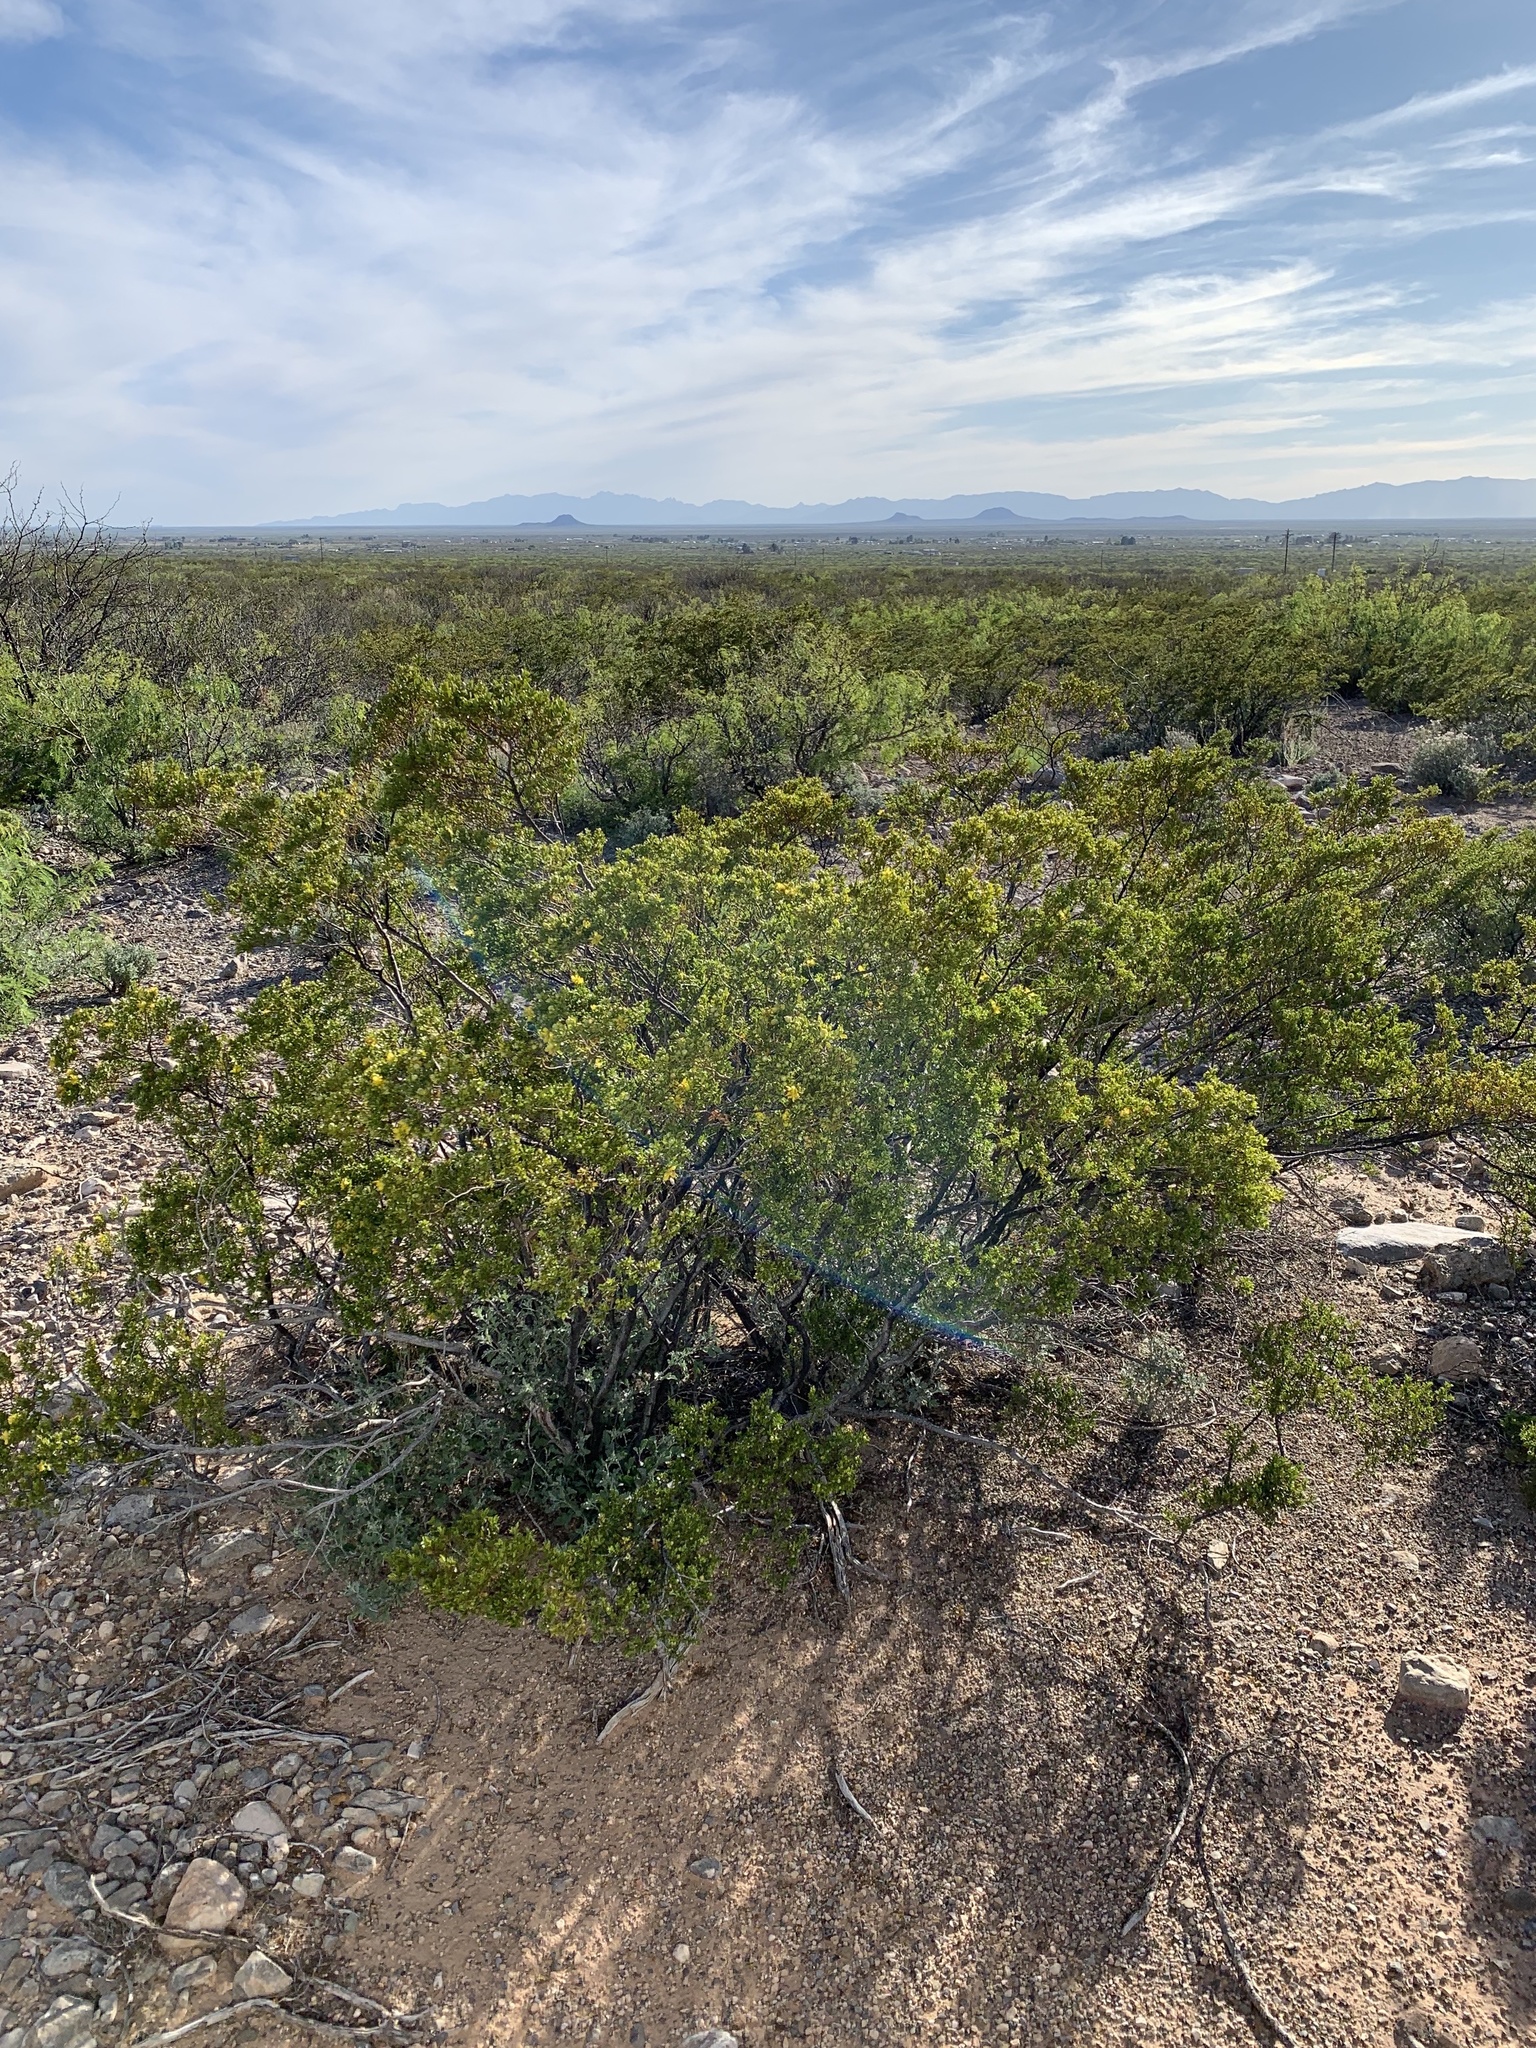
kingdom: Plantae
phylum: Tracheophyta
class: Magnoliopsida
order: Zygophyllales
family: Zygophyllaceae
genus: Larrea
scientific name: Larrea tridentata
